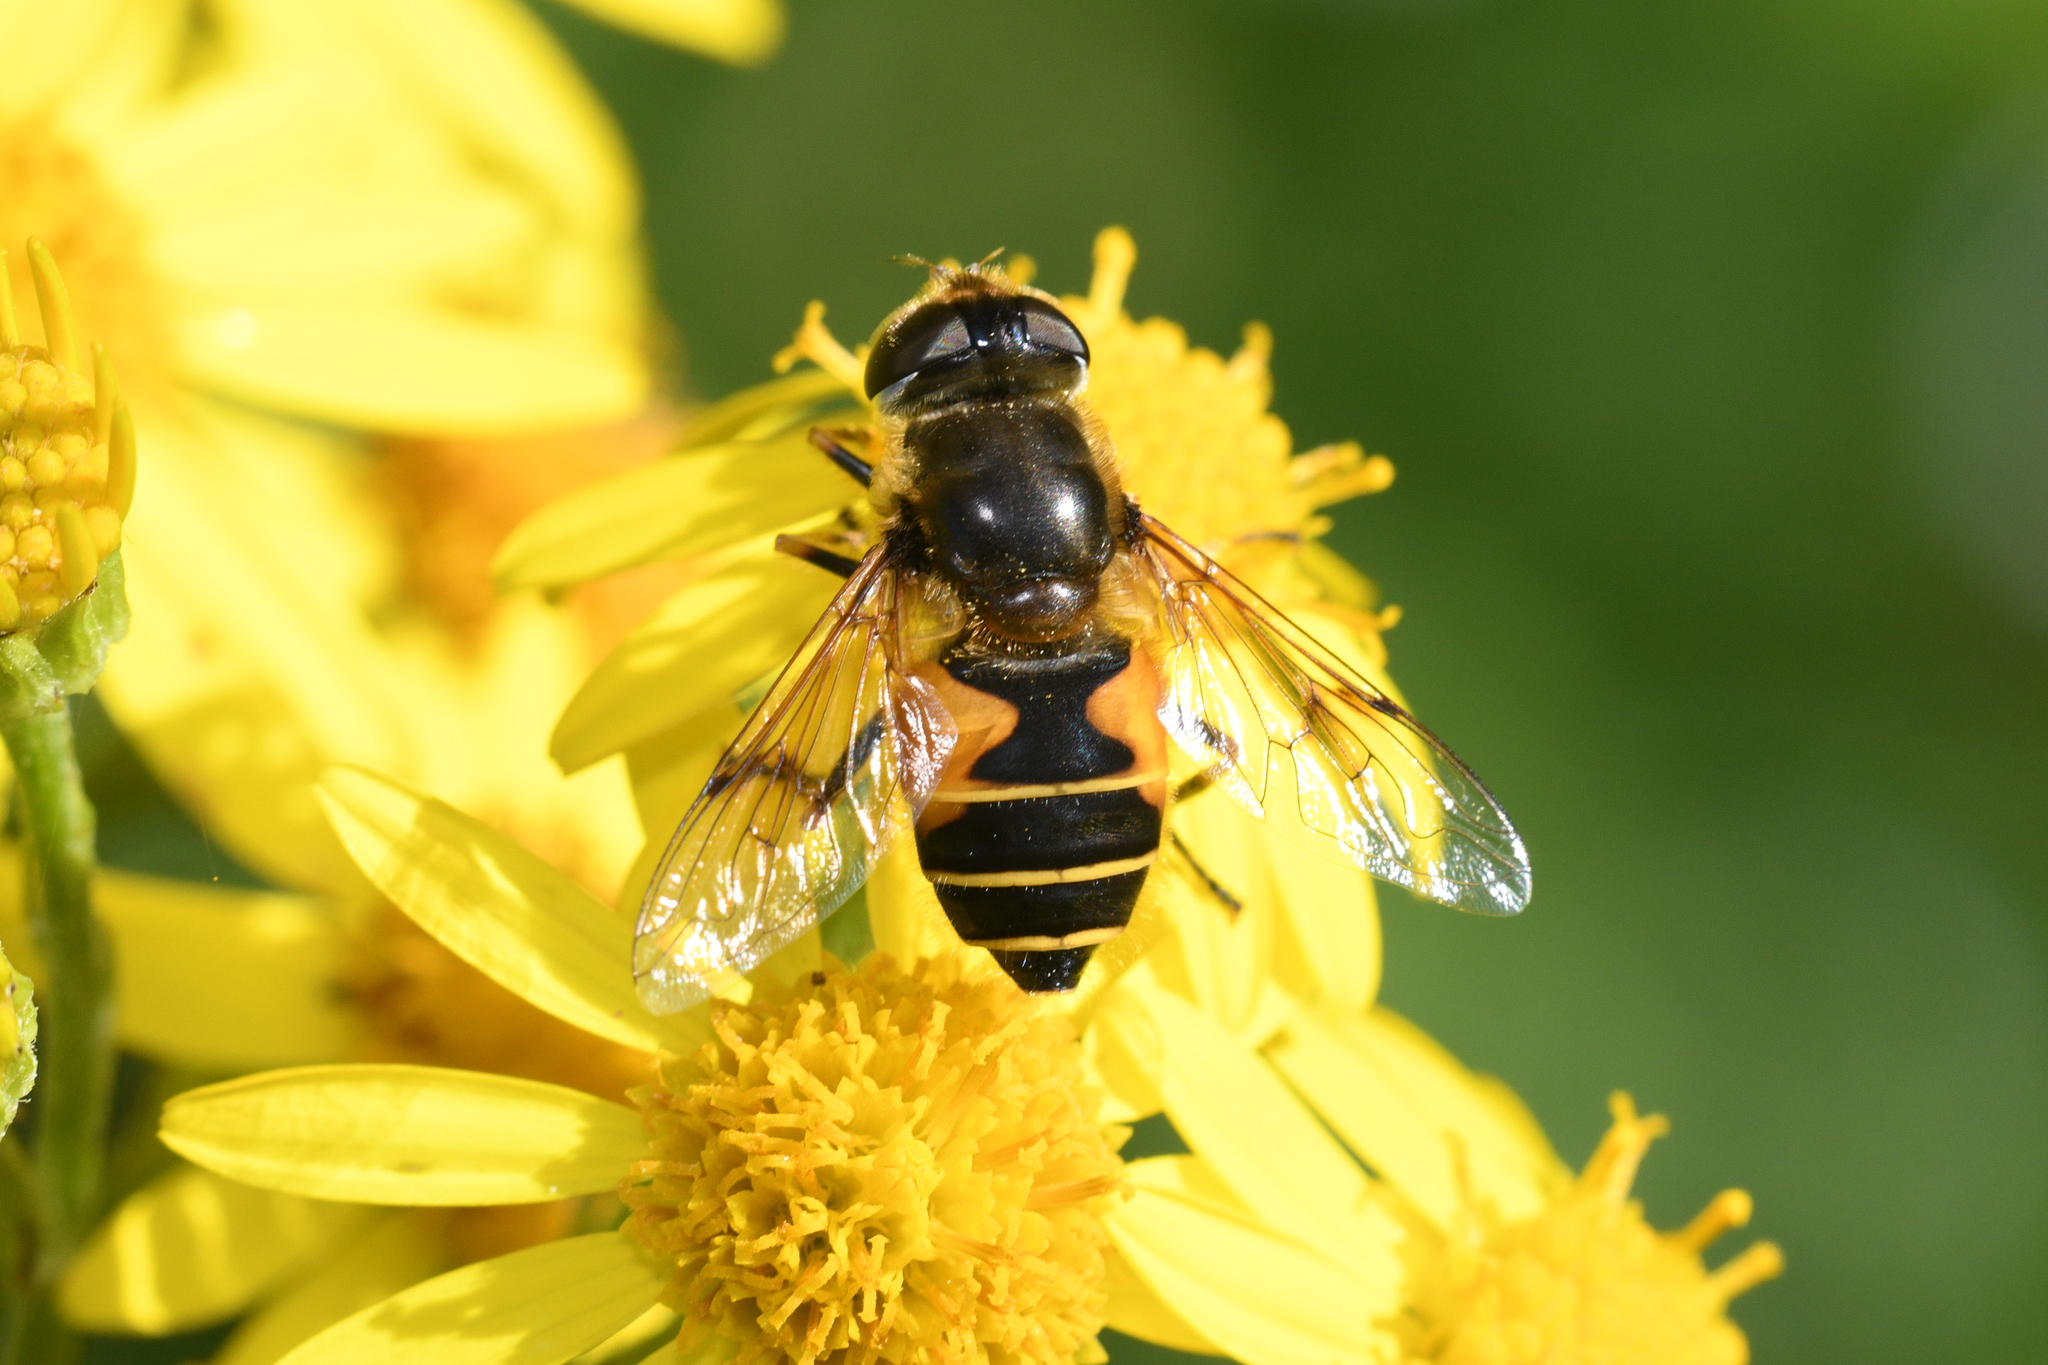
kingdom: Animalia
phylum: Arthropoda
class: Insecta
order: Diptera
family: Syrphidae
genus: Cheilosia
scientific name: Cheilosia morio
